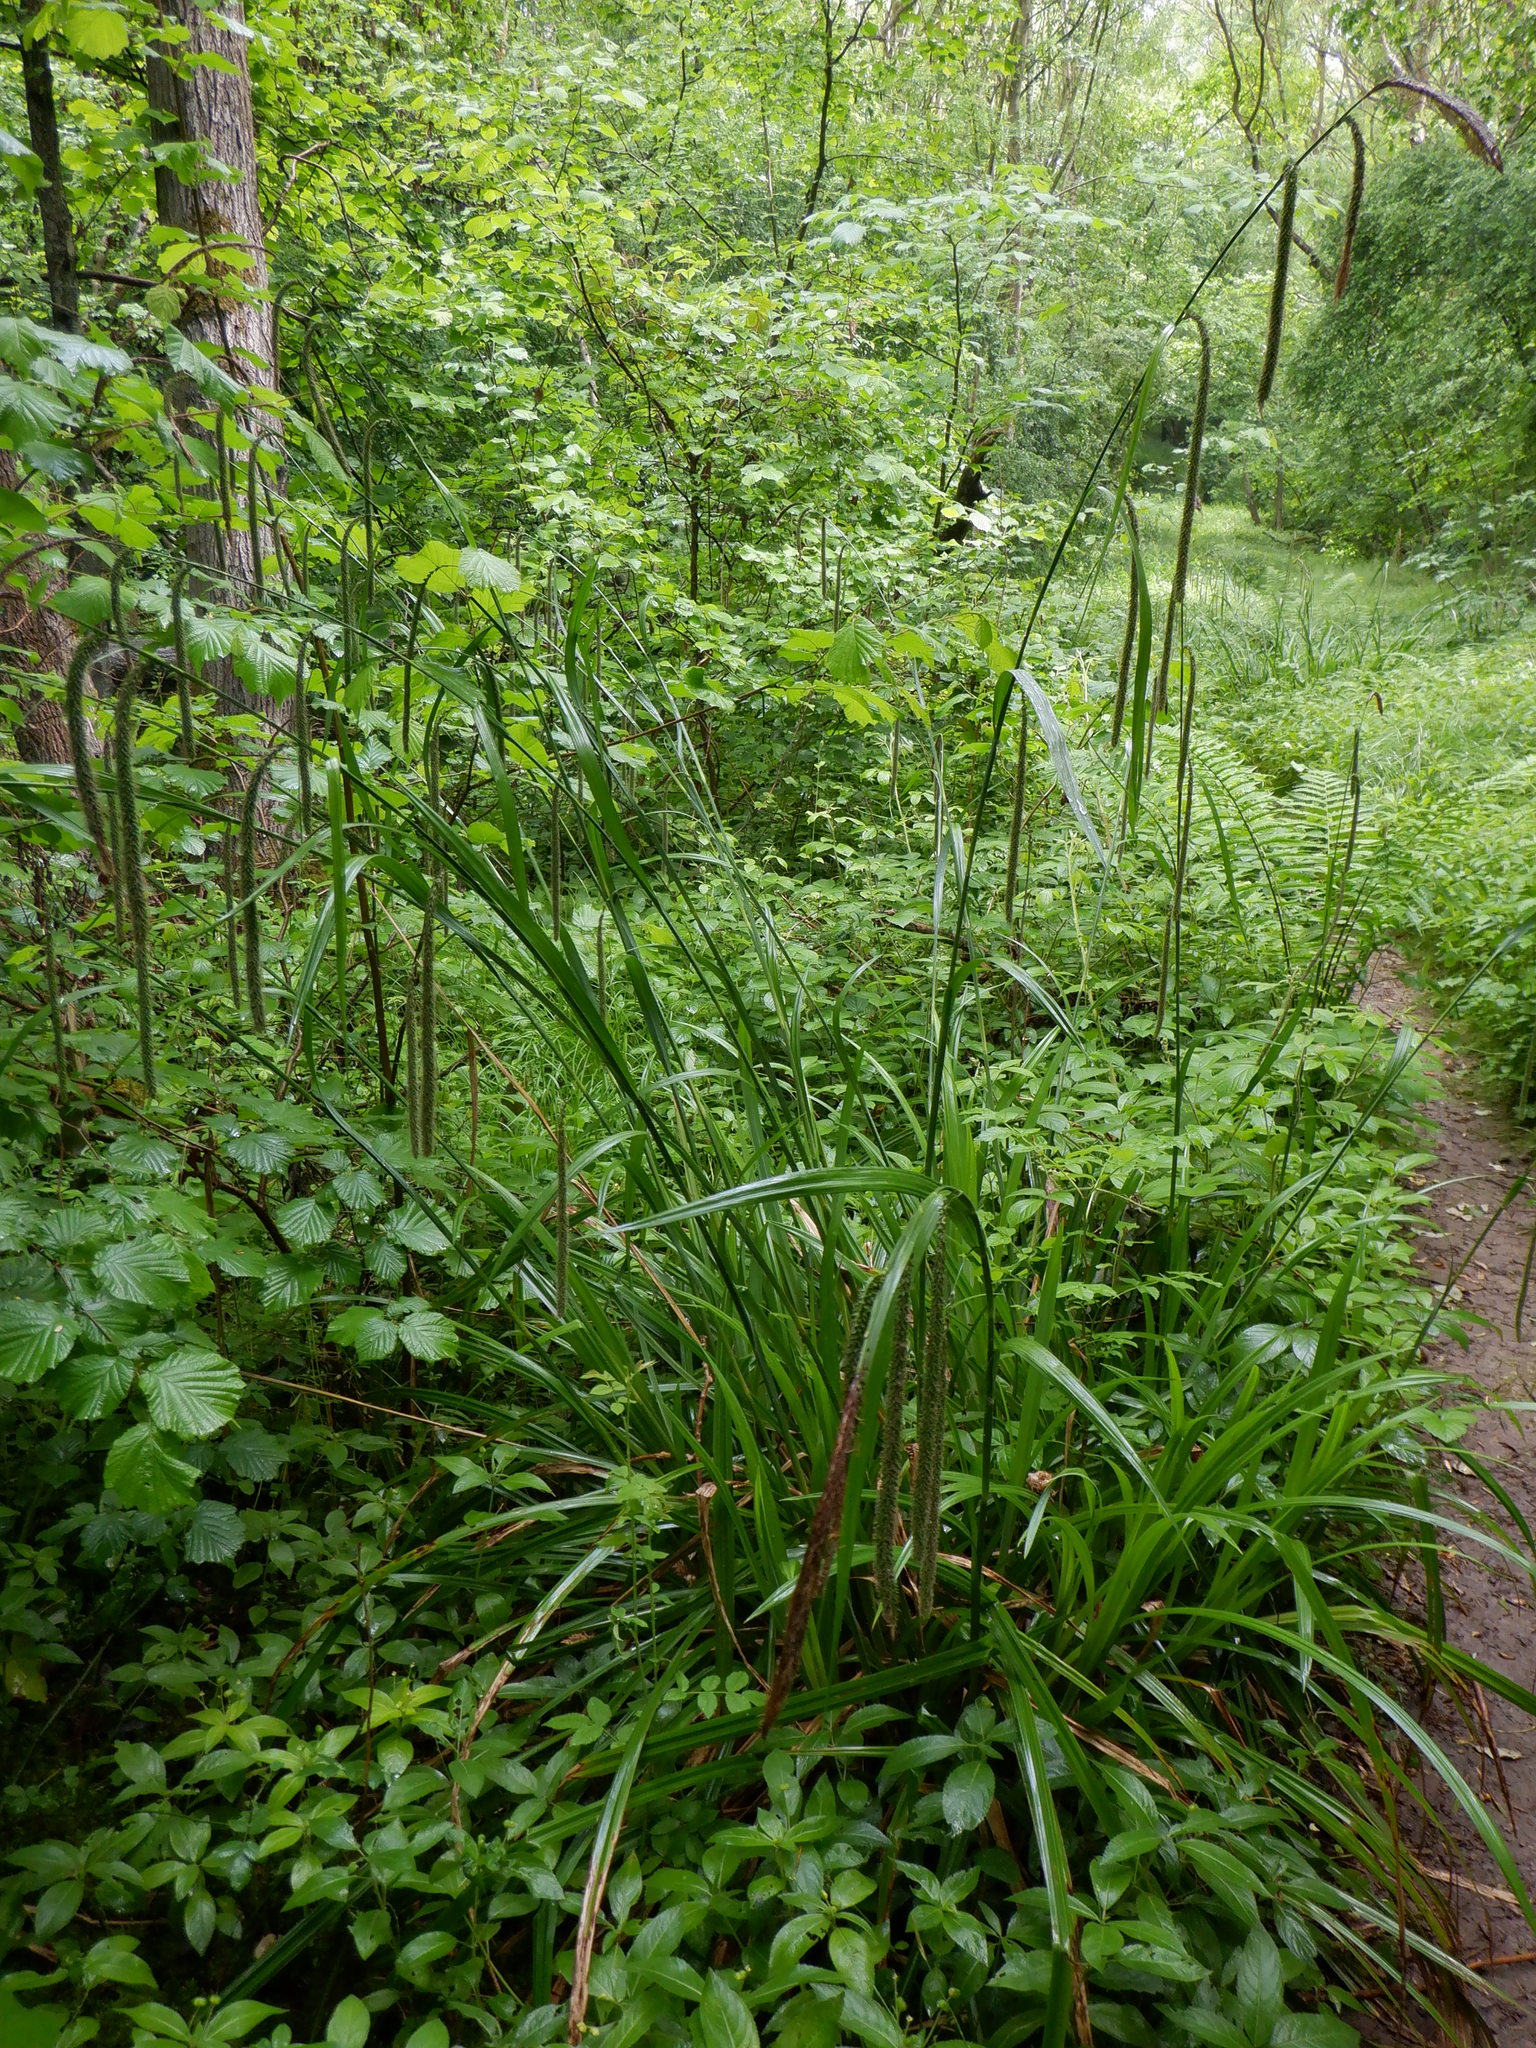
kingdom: Plantae
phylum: Tracheophyta
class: Liliopsida
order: Poales
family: Cyperaceae
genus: Carex
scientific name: Carex pendula
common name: Pendulous sedge
